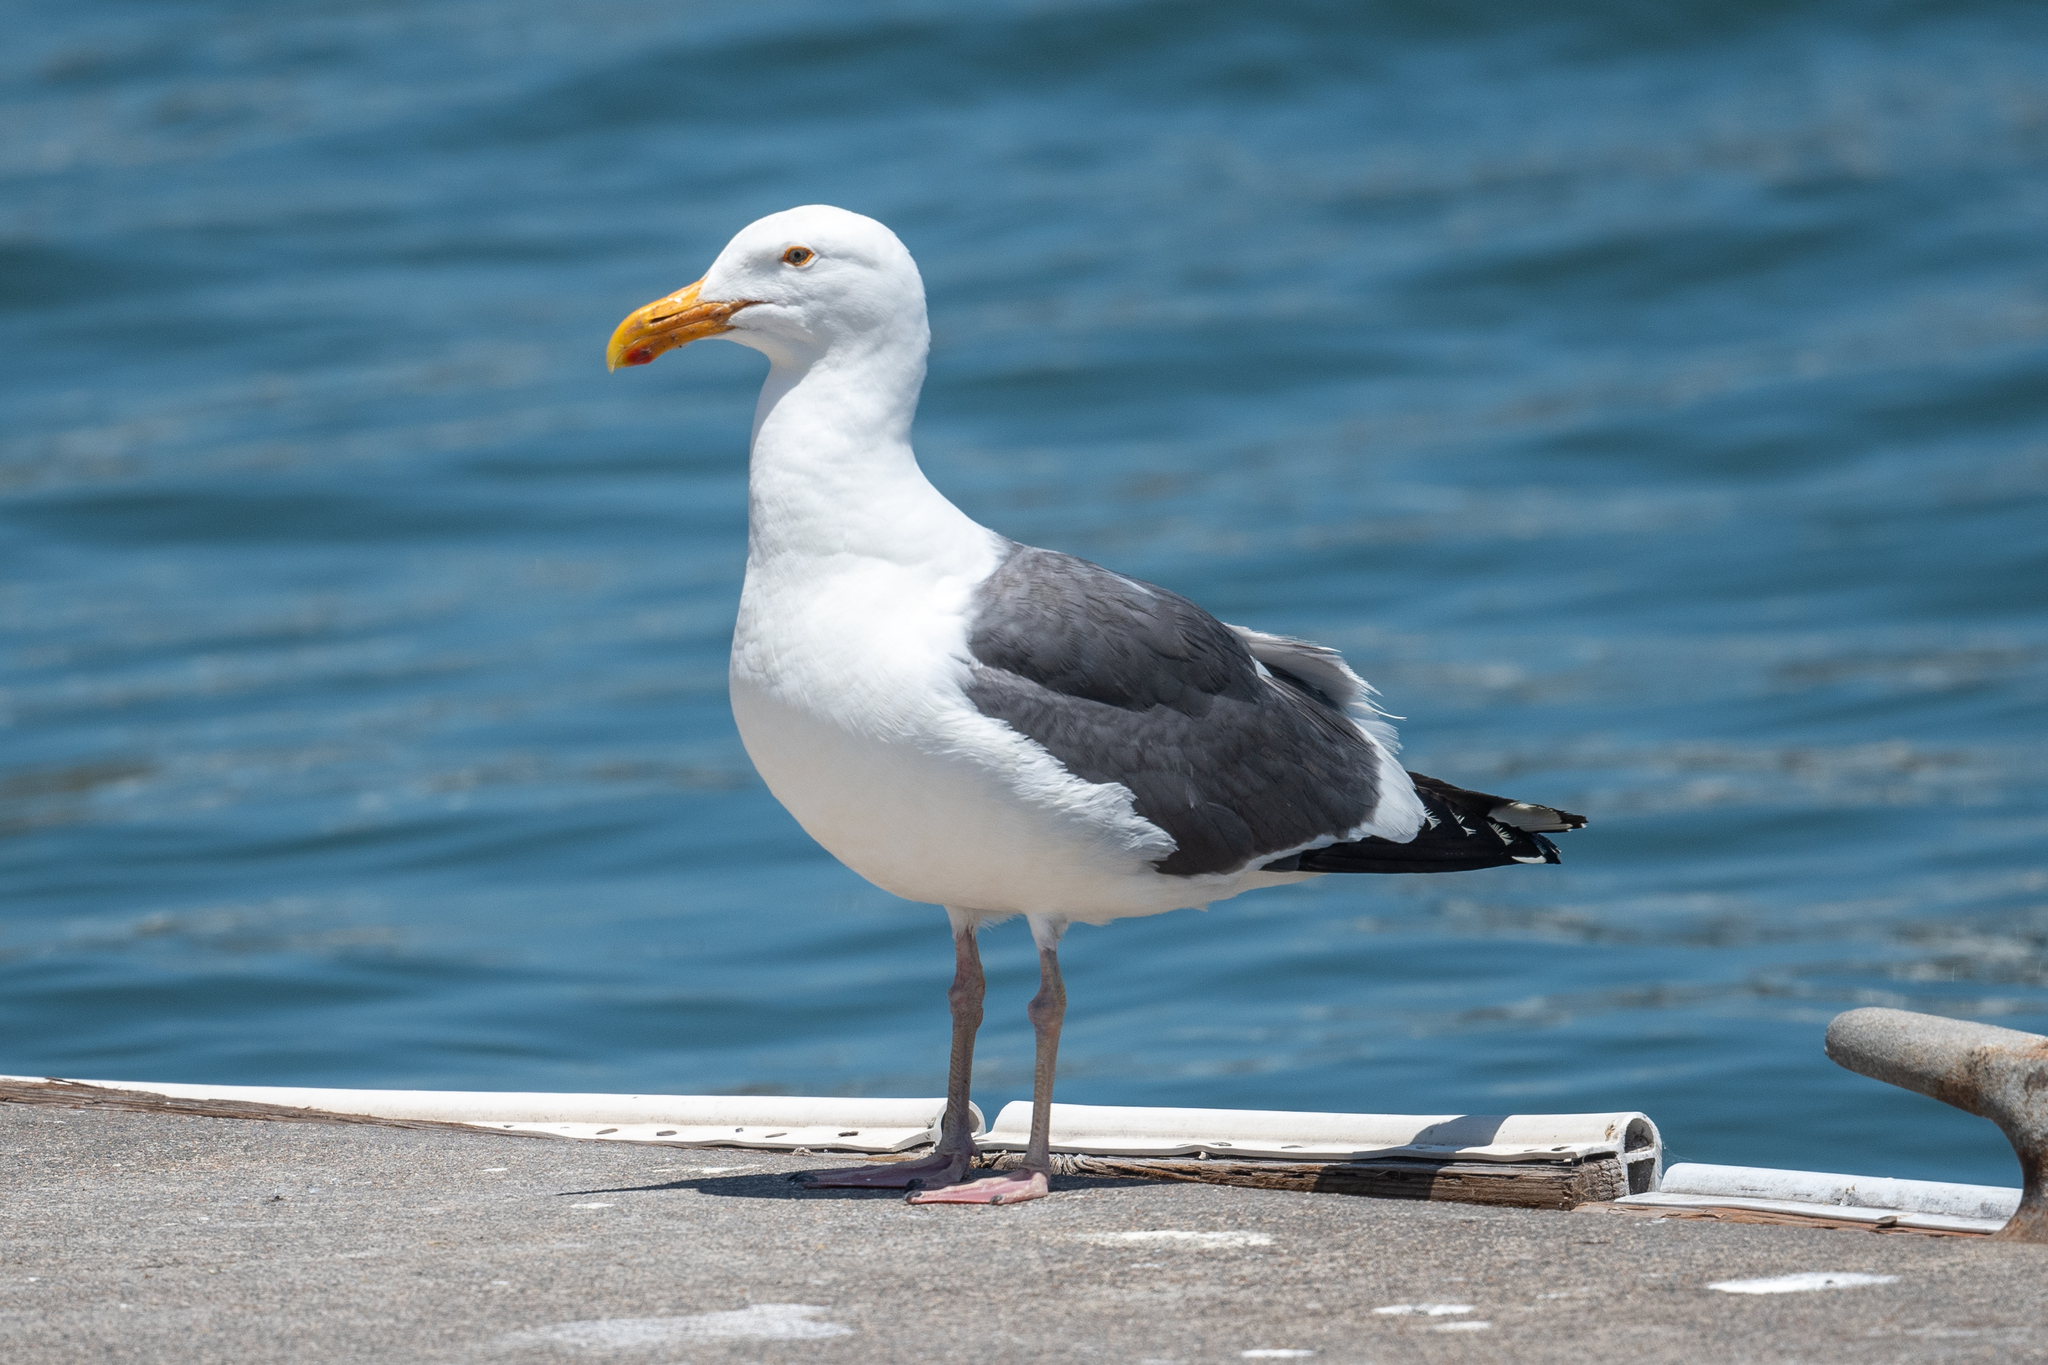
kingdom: Animalia
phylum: Chordata
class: Aves
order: Charadriiformes
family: Laridae
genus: Larus
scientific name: Larus occidentalis
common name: Western gull
